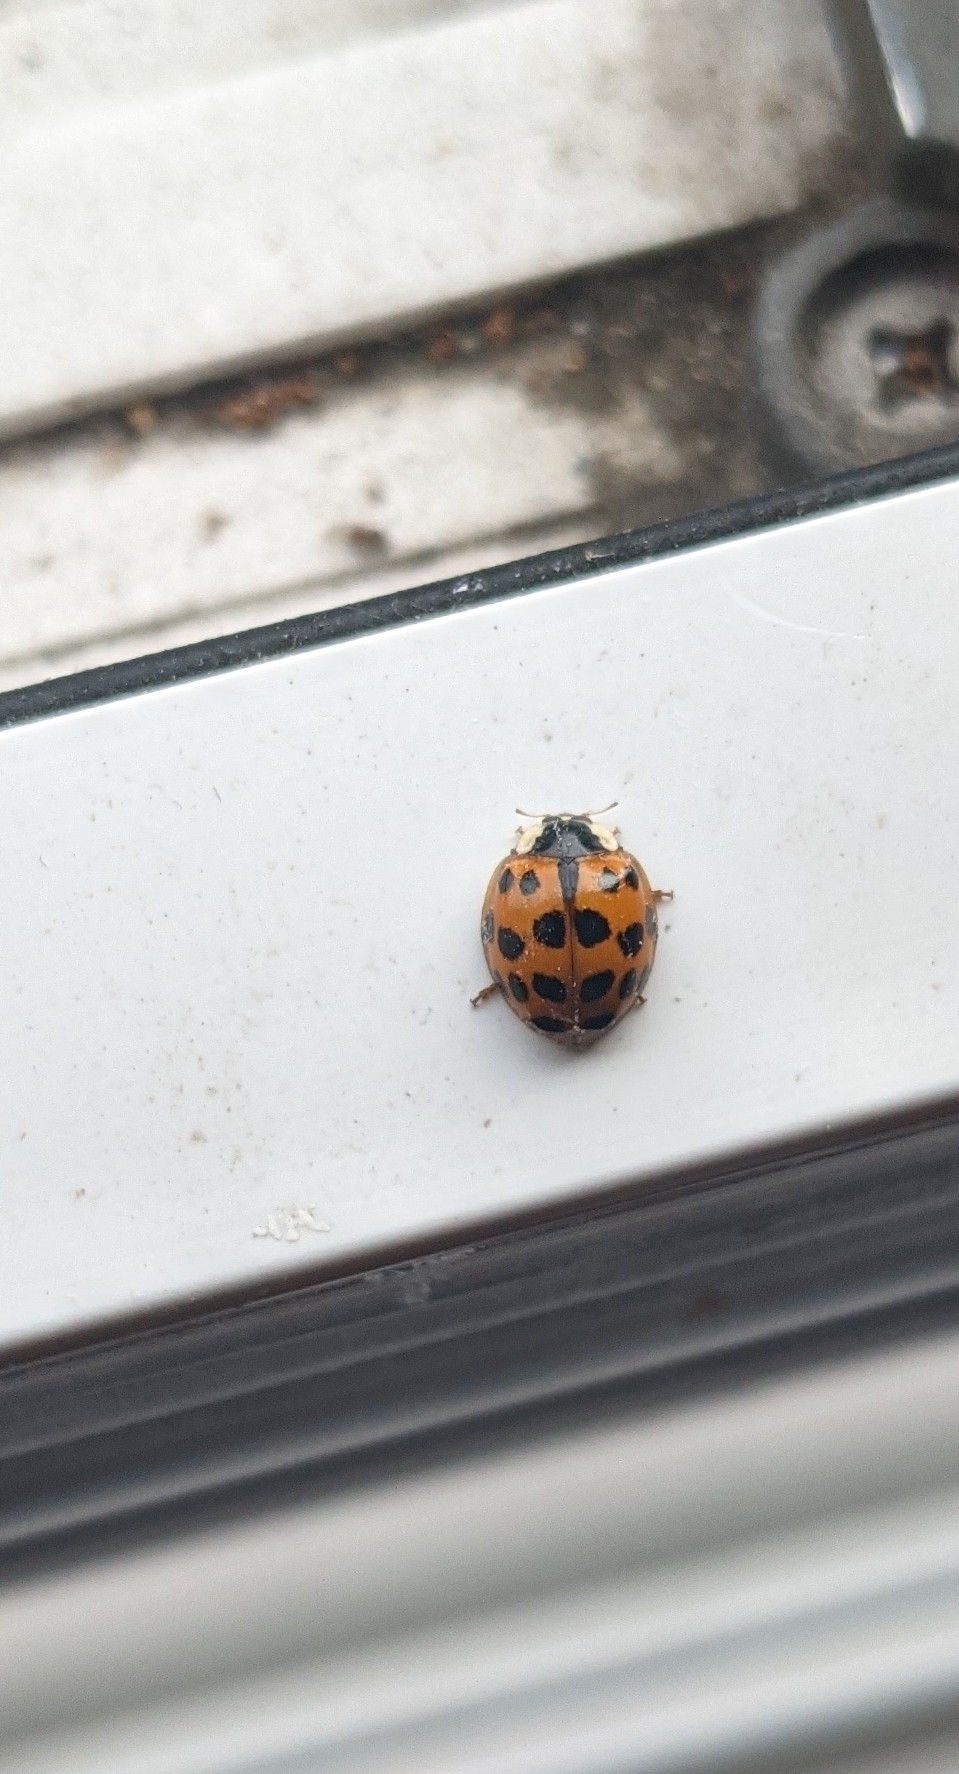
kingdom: Animalia
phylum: Arthropoda
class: Insecta
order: Coleoptera
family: Coccinellidae
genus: Harmonia
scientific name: Harmonia axyridis
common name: Harlequin ladybird
